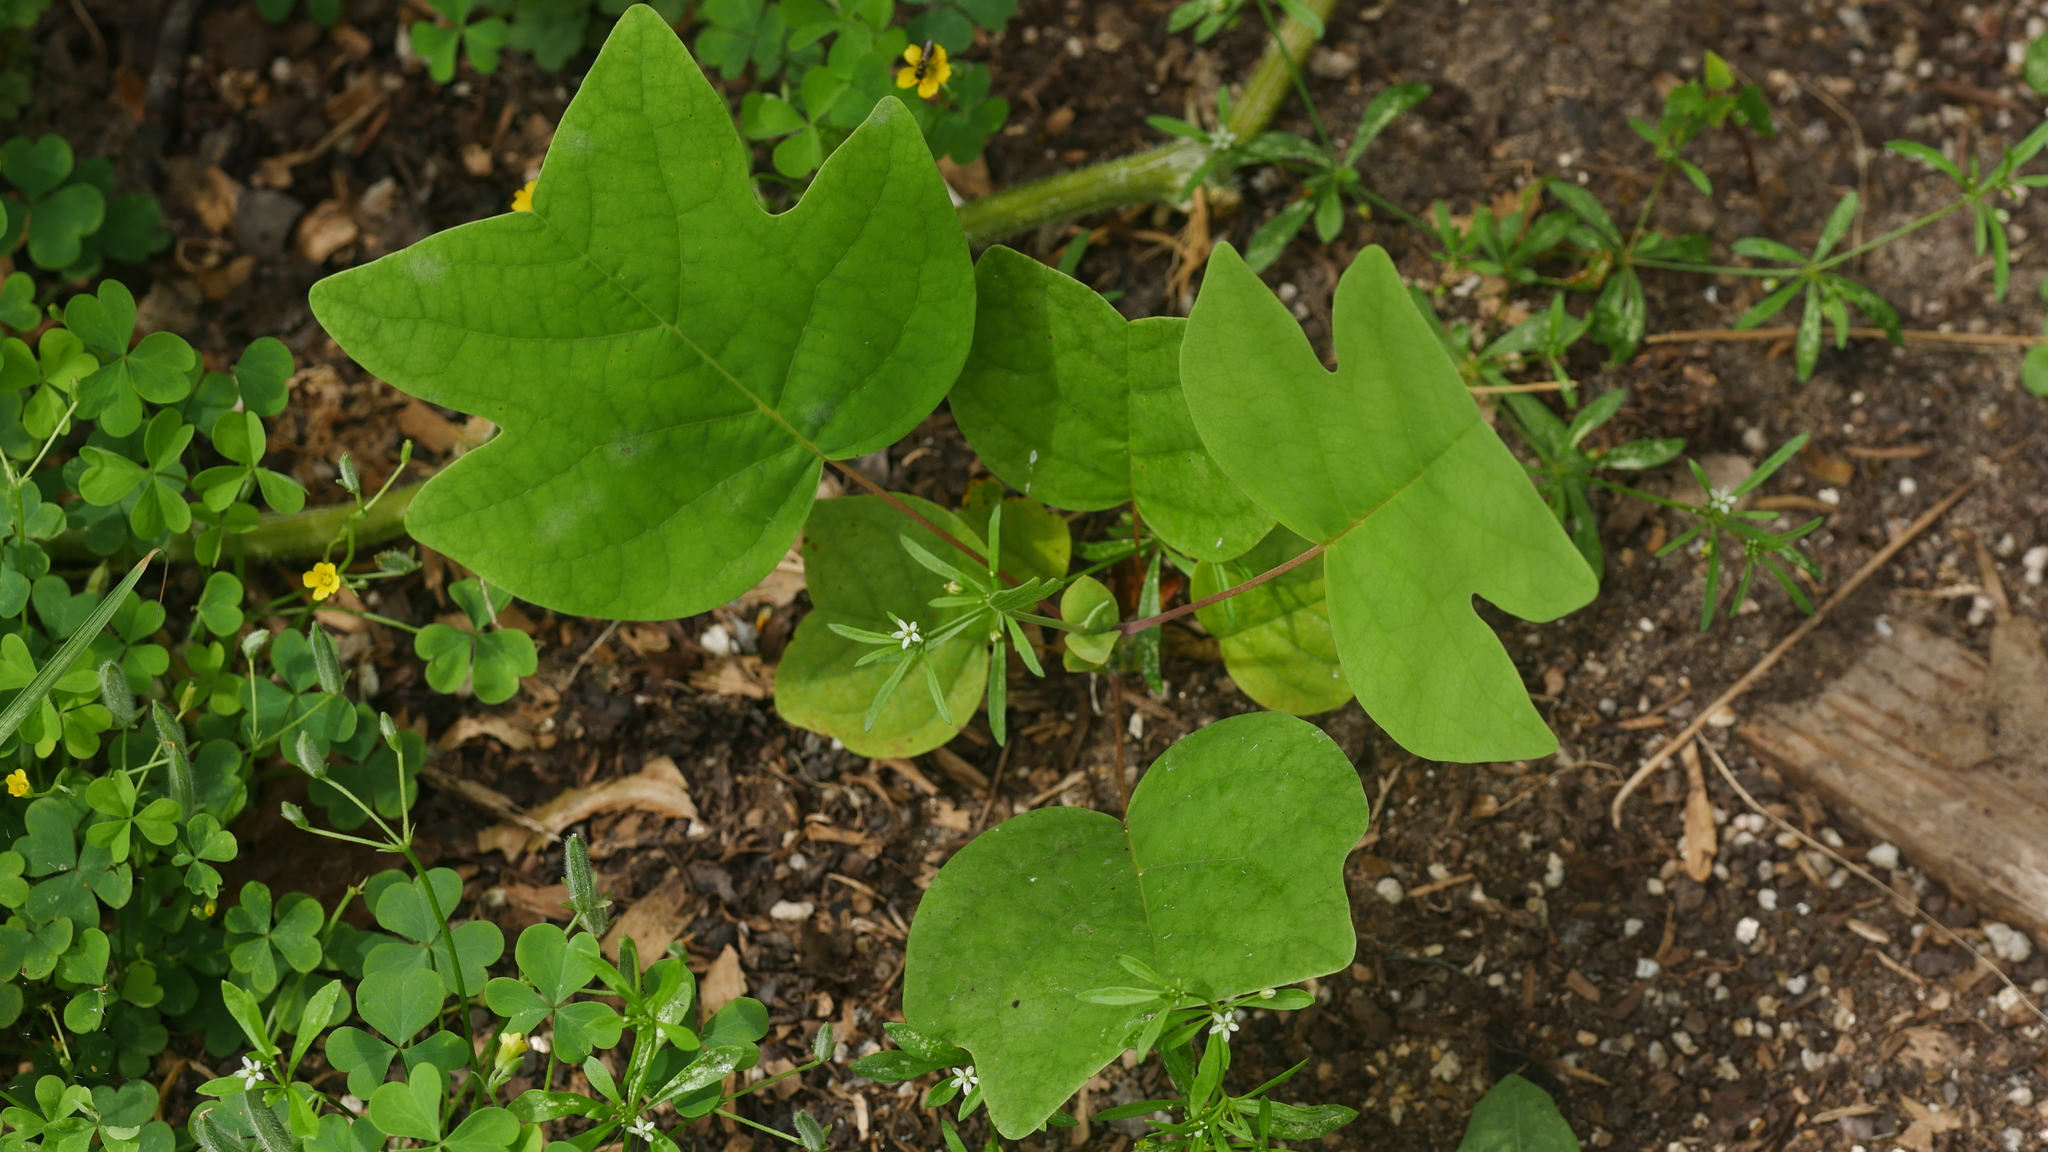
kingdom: Plantae
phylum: Tracheophyta
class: Magnoliopsida
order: Magnoliales
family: Magnoliaceae
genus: Liriodendron
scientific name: Liriodendron tulipifera
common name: Tulip tree
